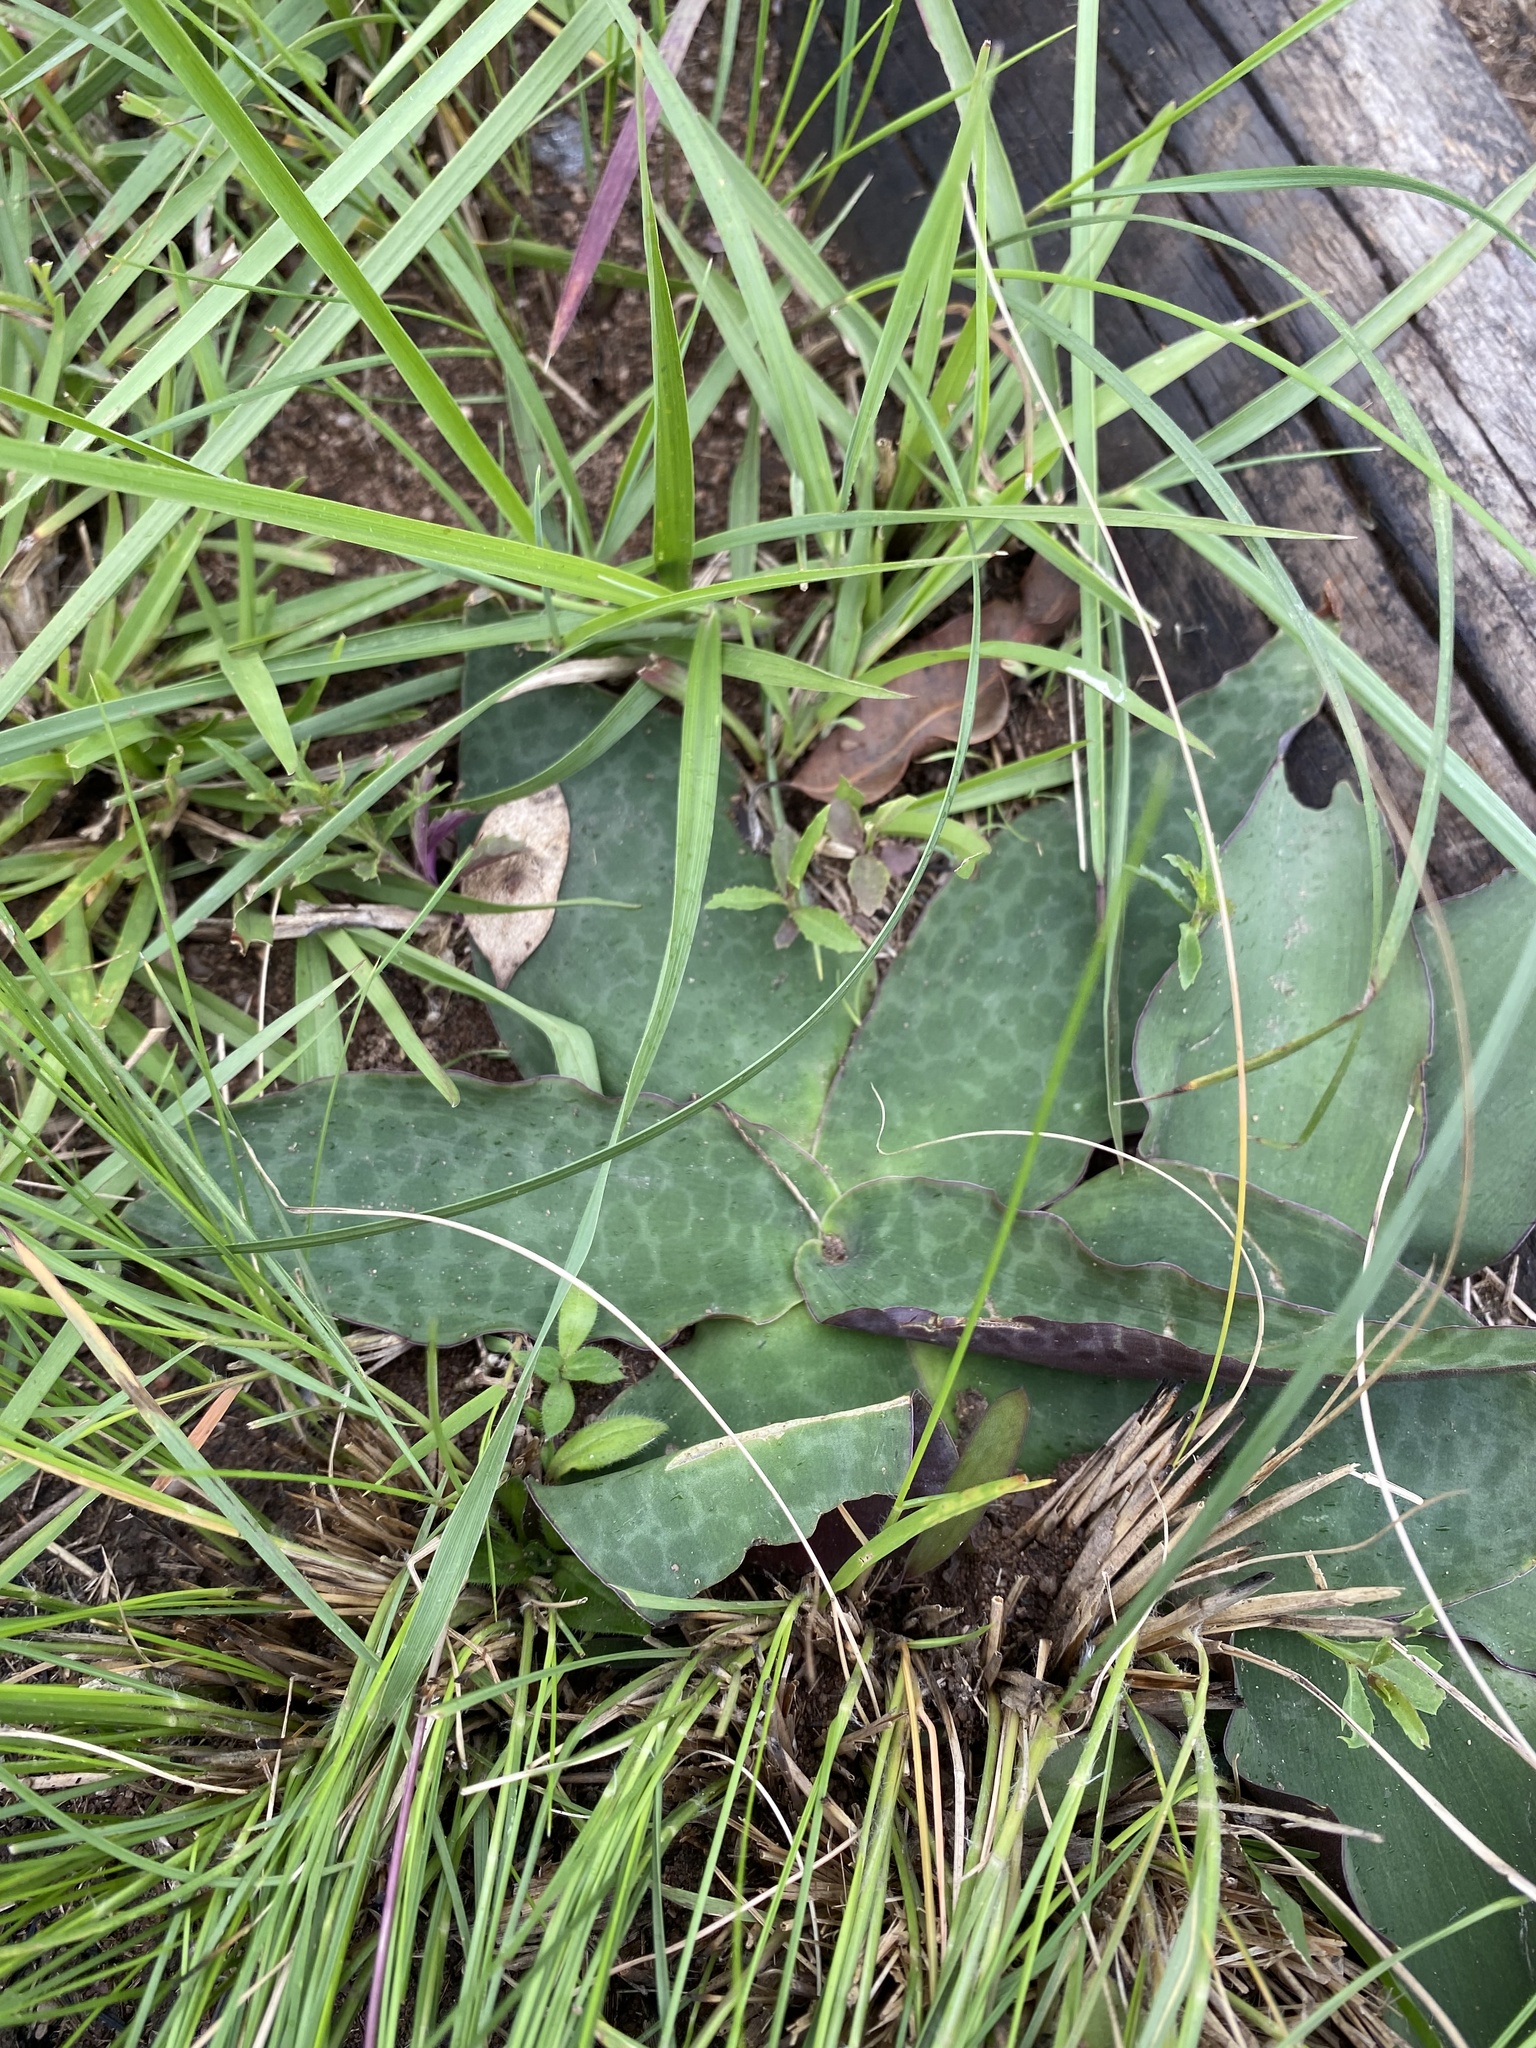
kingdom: Plantae
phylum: Tracheophyta
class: Liliopsida
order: Asparagales
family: Asparagaceae
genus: Ledebouria
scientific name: Ledebouria ovatifolia
